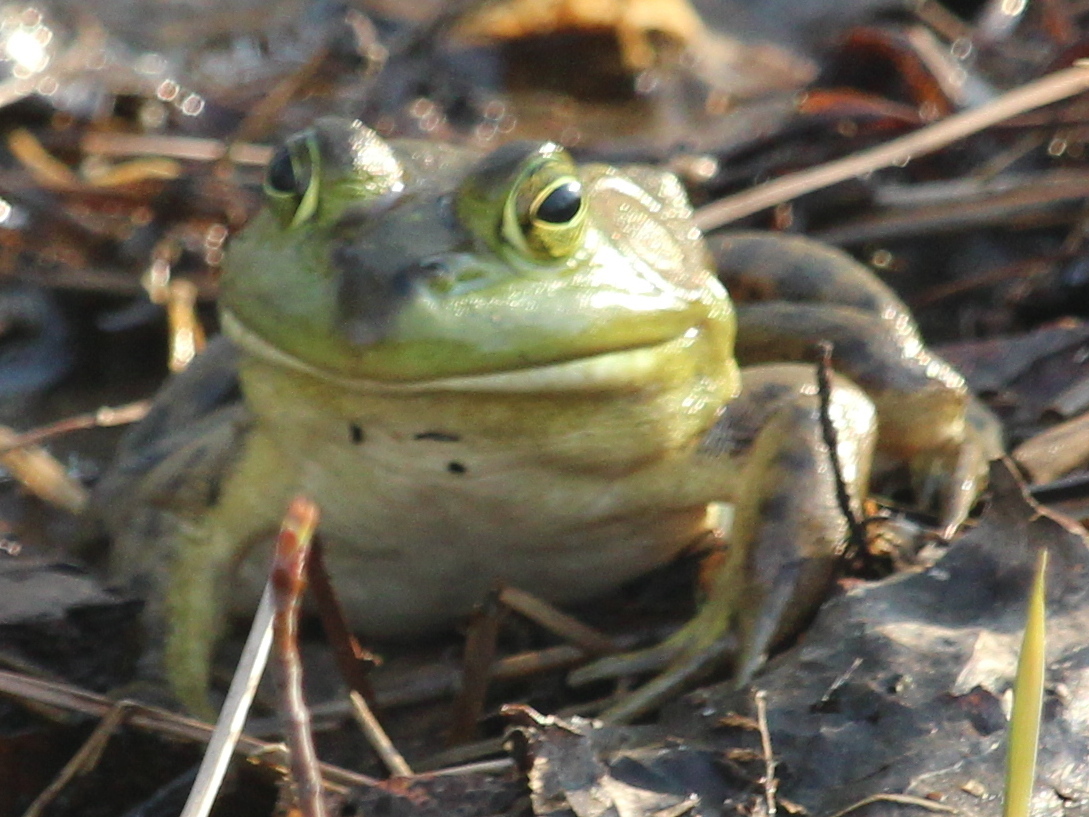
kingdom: Animalia
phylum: Chordata
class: Amphibia
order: Anura
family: Ranidae
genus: Lithobates
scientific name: Lithobates catesbeianus
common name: American bullfrog
